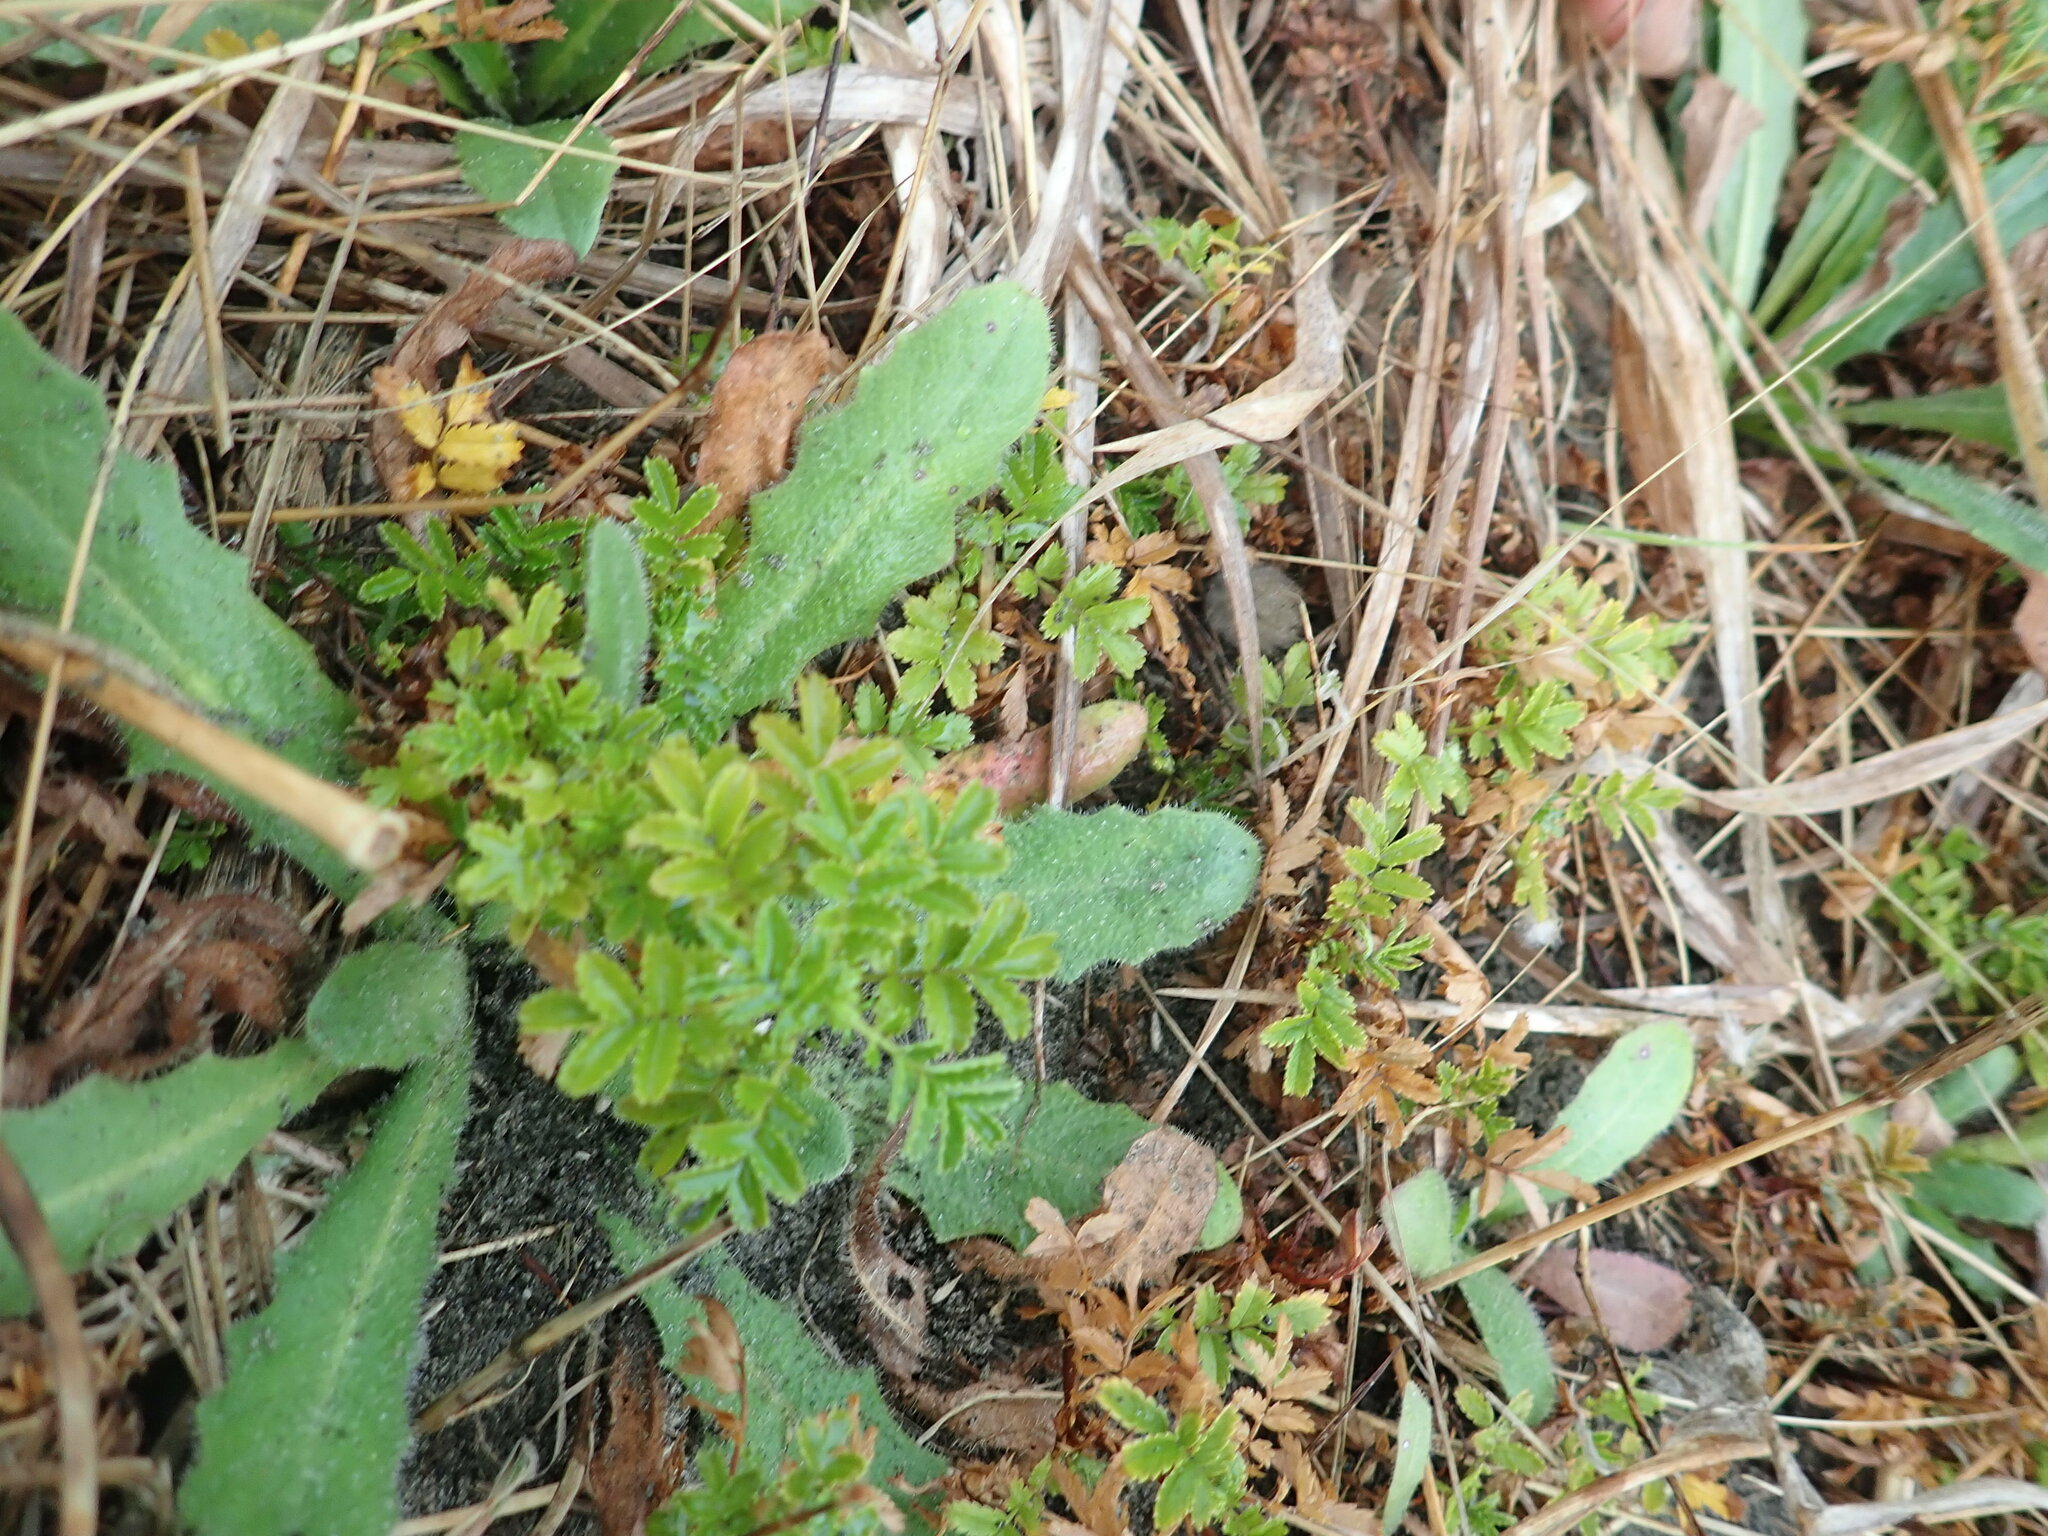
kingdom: Plantae
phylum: Tracheophyta
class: Magnoliopsida
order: Rosales
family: Rosaceae
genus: Acaena
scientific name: Acaena novae-zelandiae
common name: Pirri-pirri-bur
